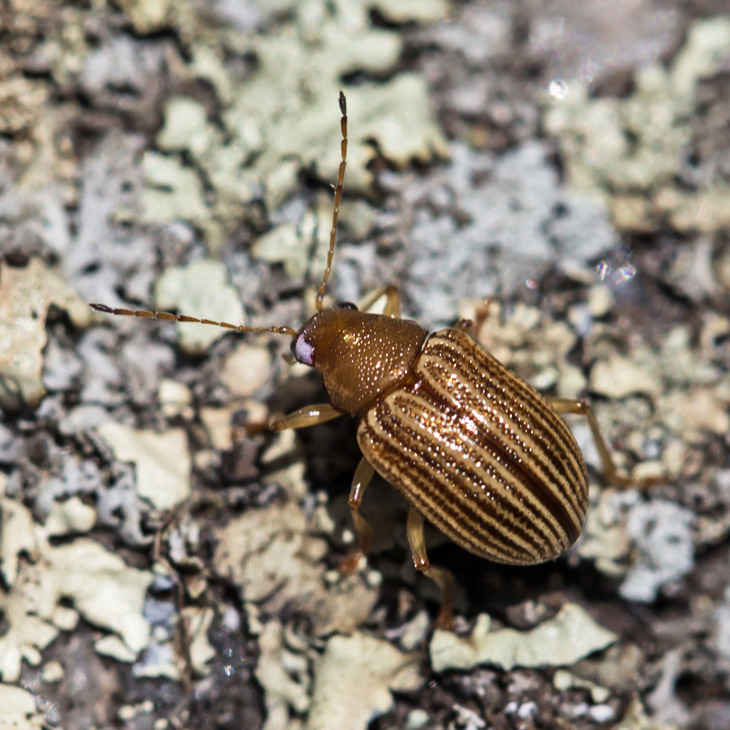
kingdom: Animalia
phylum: Arthropoda
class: Insecta
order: Coleoptera
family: Chrysomelidae
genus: Colaspis
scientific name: Colaspis brunnea
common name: Grape colaspis
